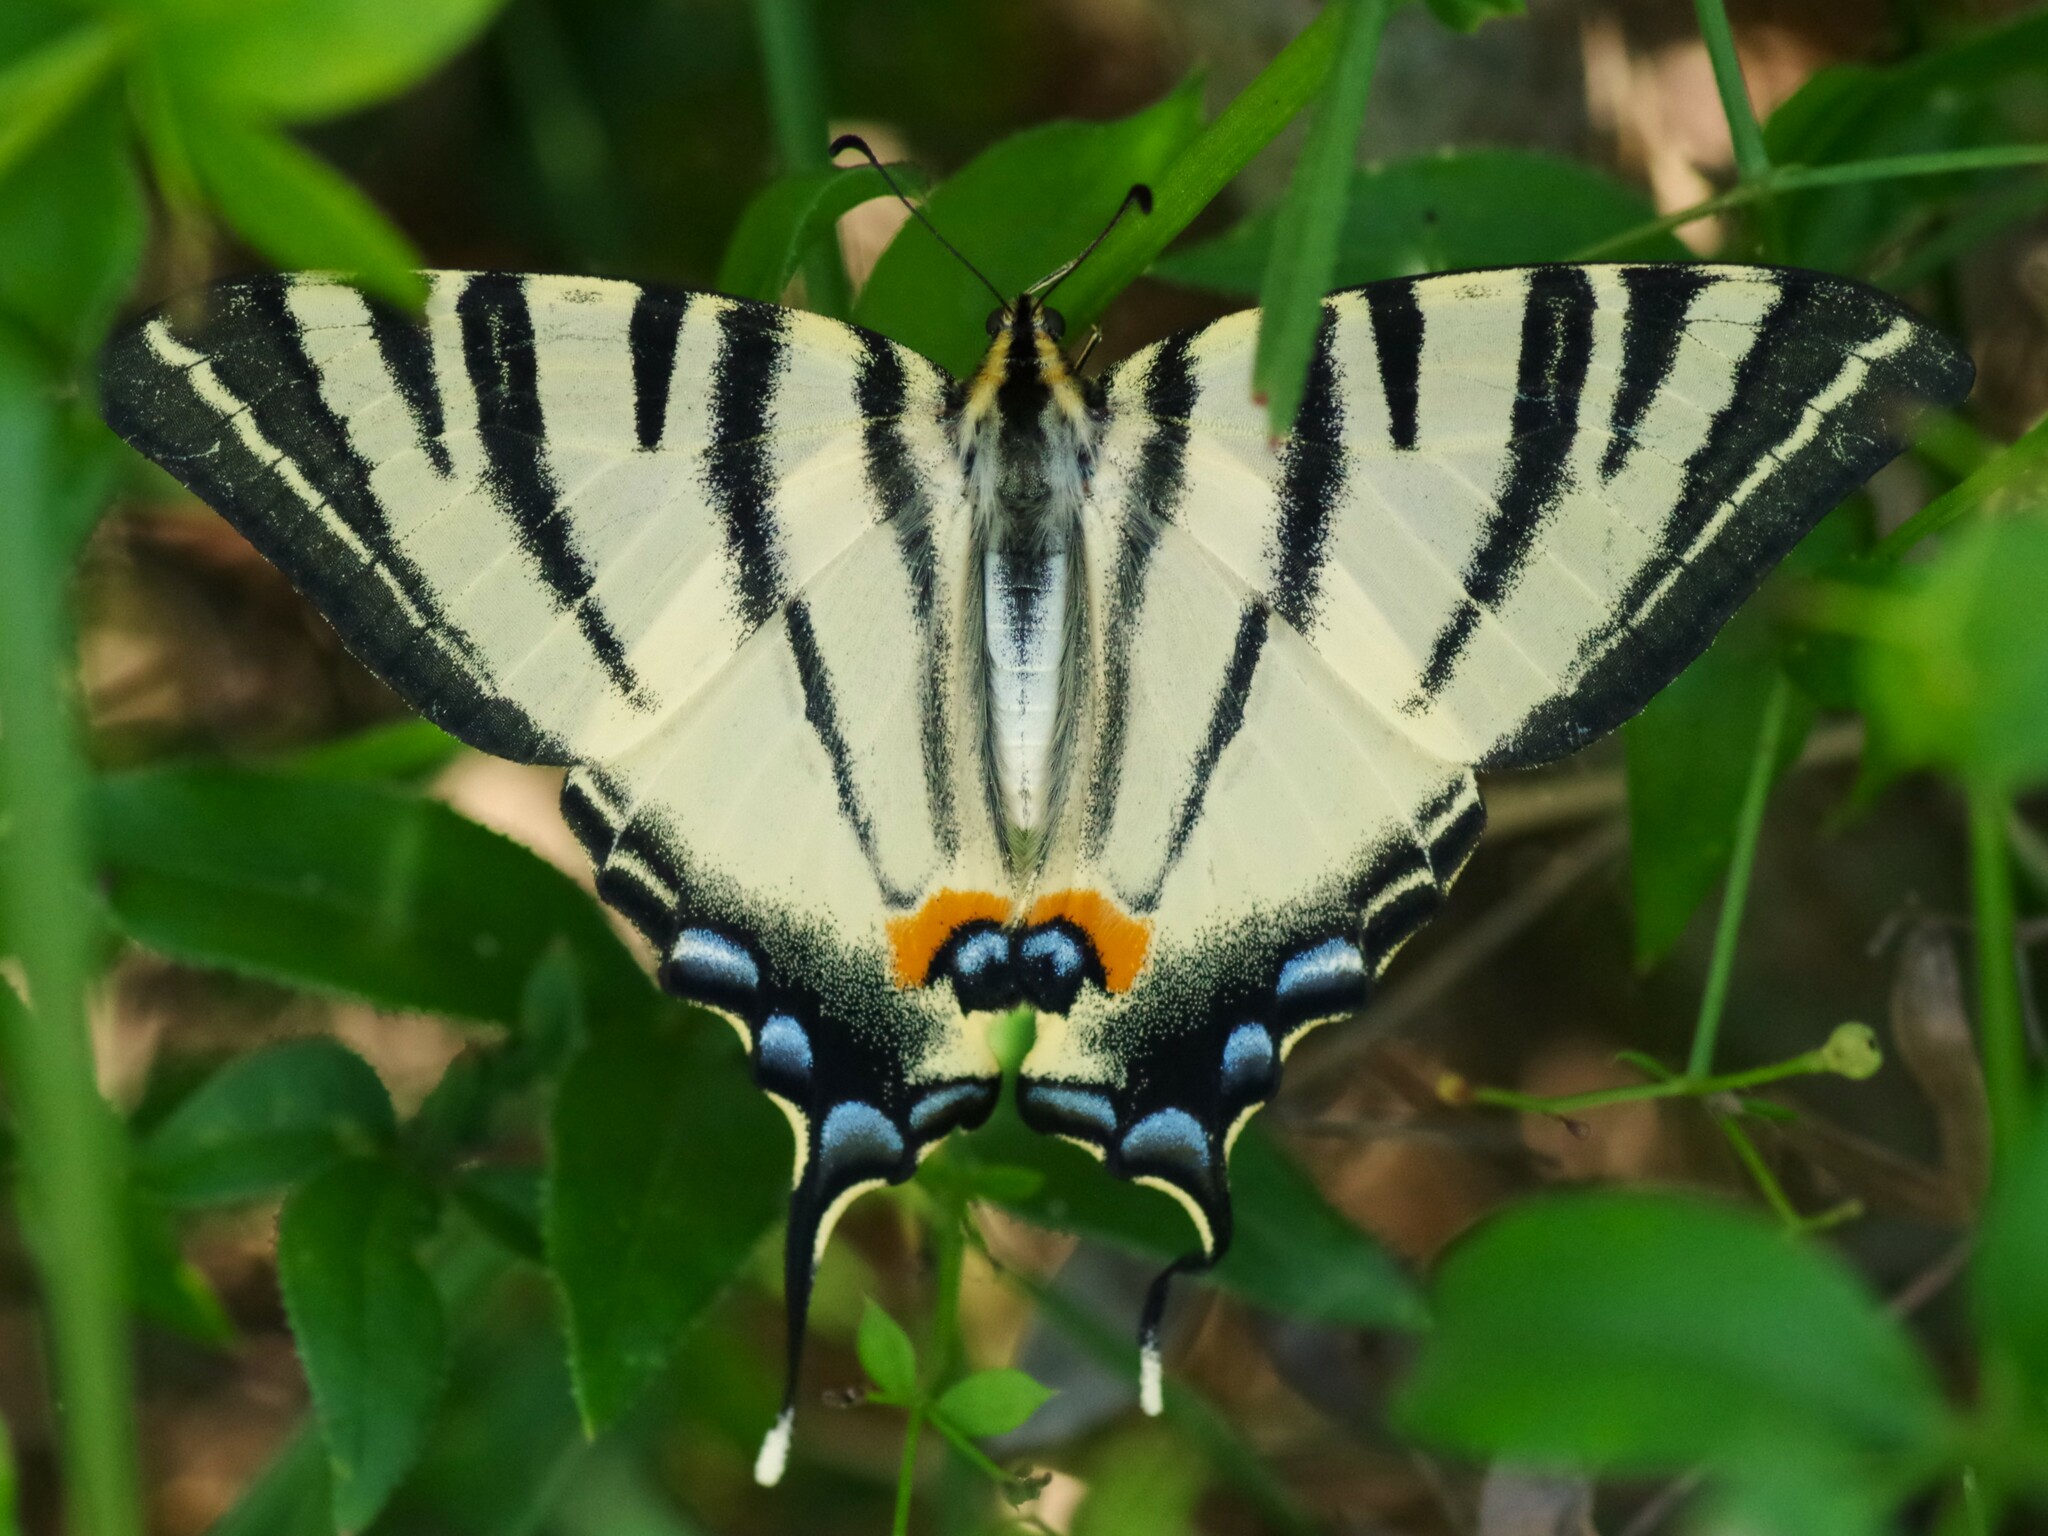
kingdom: Animalia
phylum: Arthropoda
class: Insecta
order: Lepidoptera
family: Papilionidae
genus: Iphiclides
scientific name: Iphiclides podalirius
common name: Scarce swallowtail
